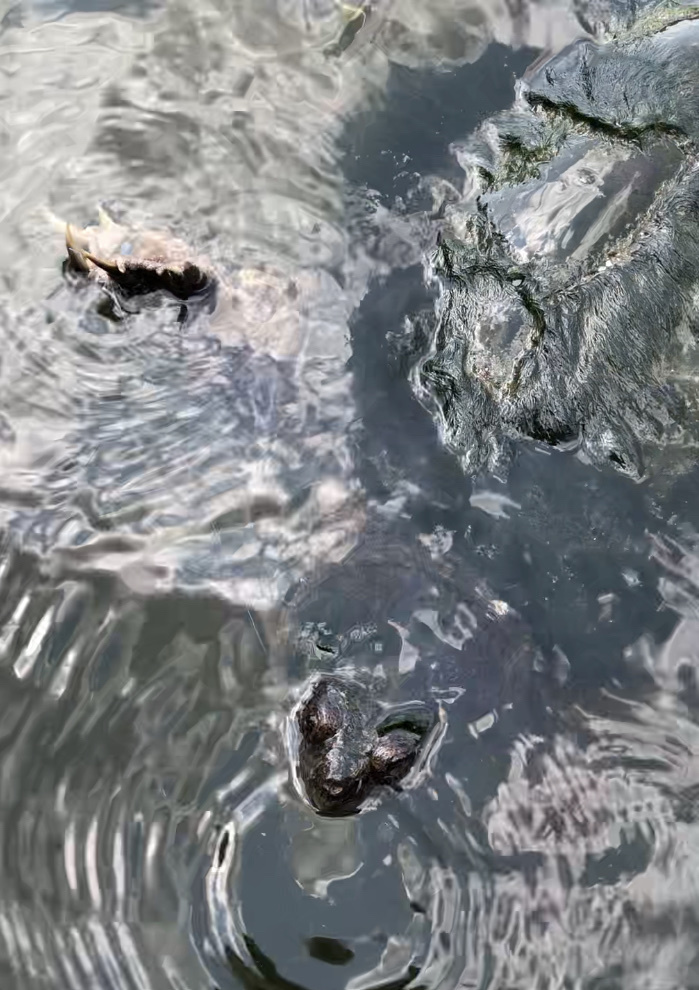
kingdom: Animalia
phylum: Chordata
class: Testudines
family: Chelydridae
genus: Chelydra
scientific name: Chelydra serpentina
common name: Common snapping turtle
